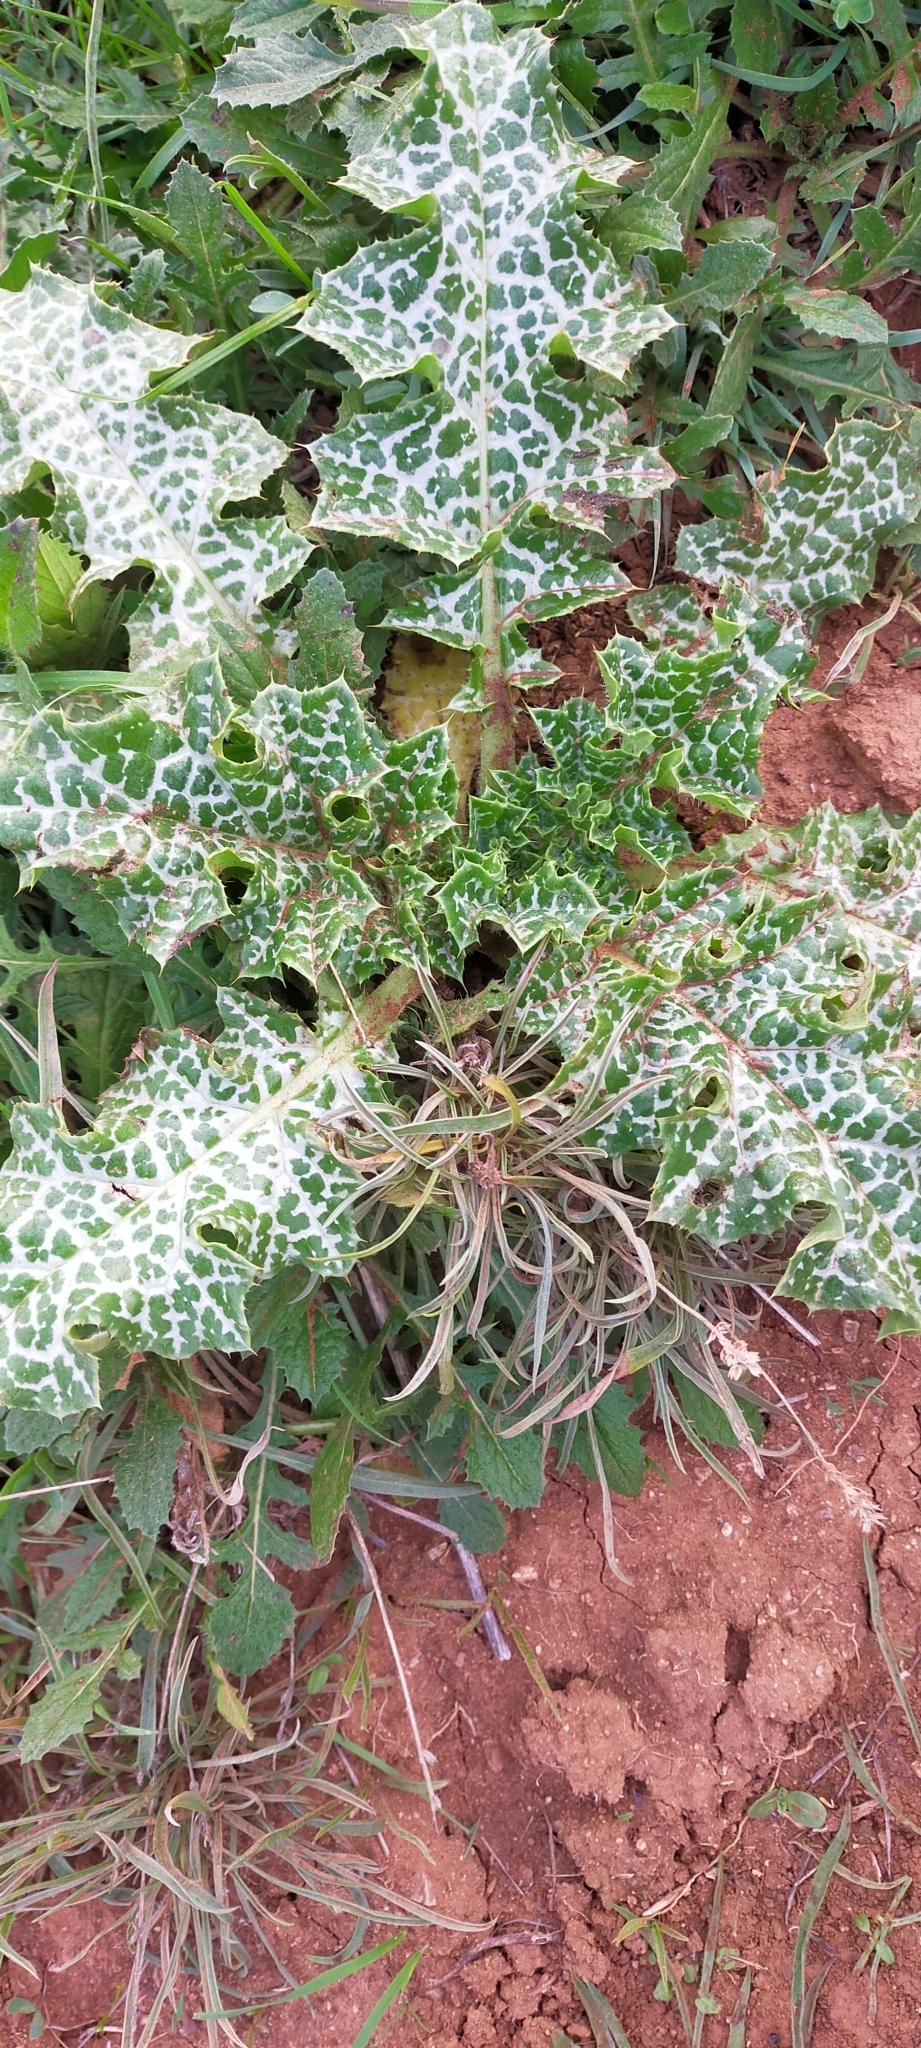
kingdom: Plantae
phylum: Tracheophyta
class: Magnoliopsida
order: Asterales
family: Asteraceae
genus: Silybum
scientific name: Silybum marianum
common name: Milk thistle
